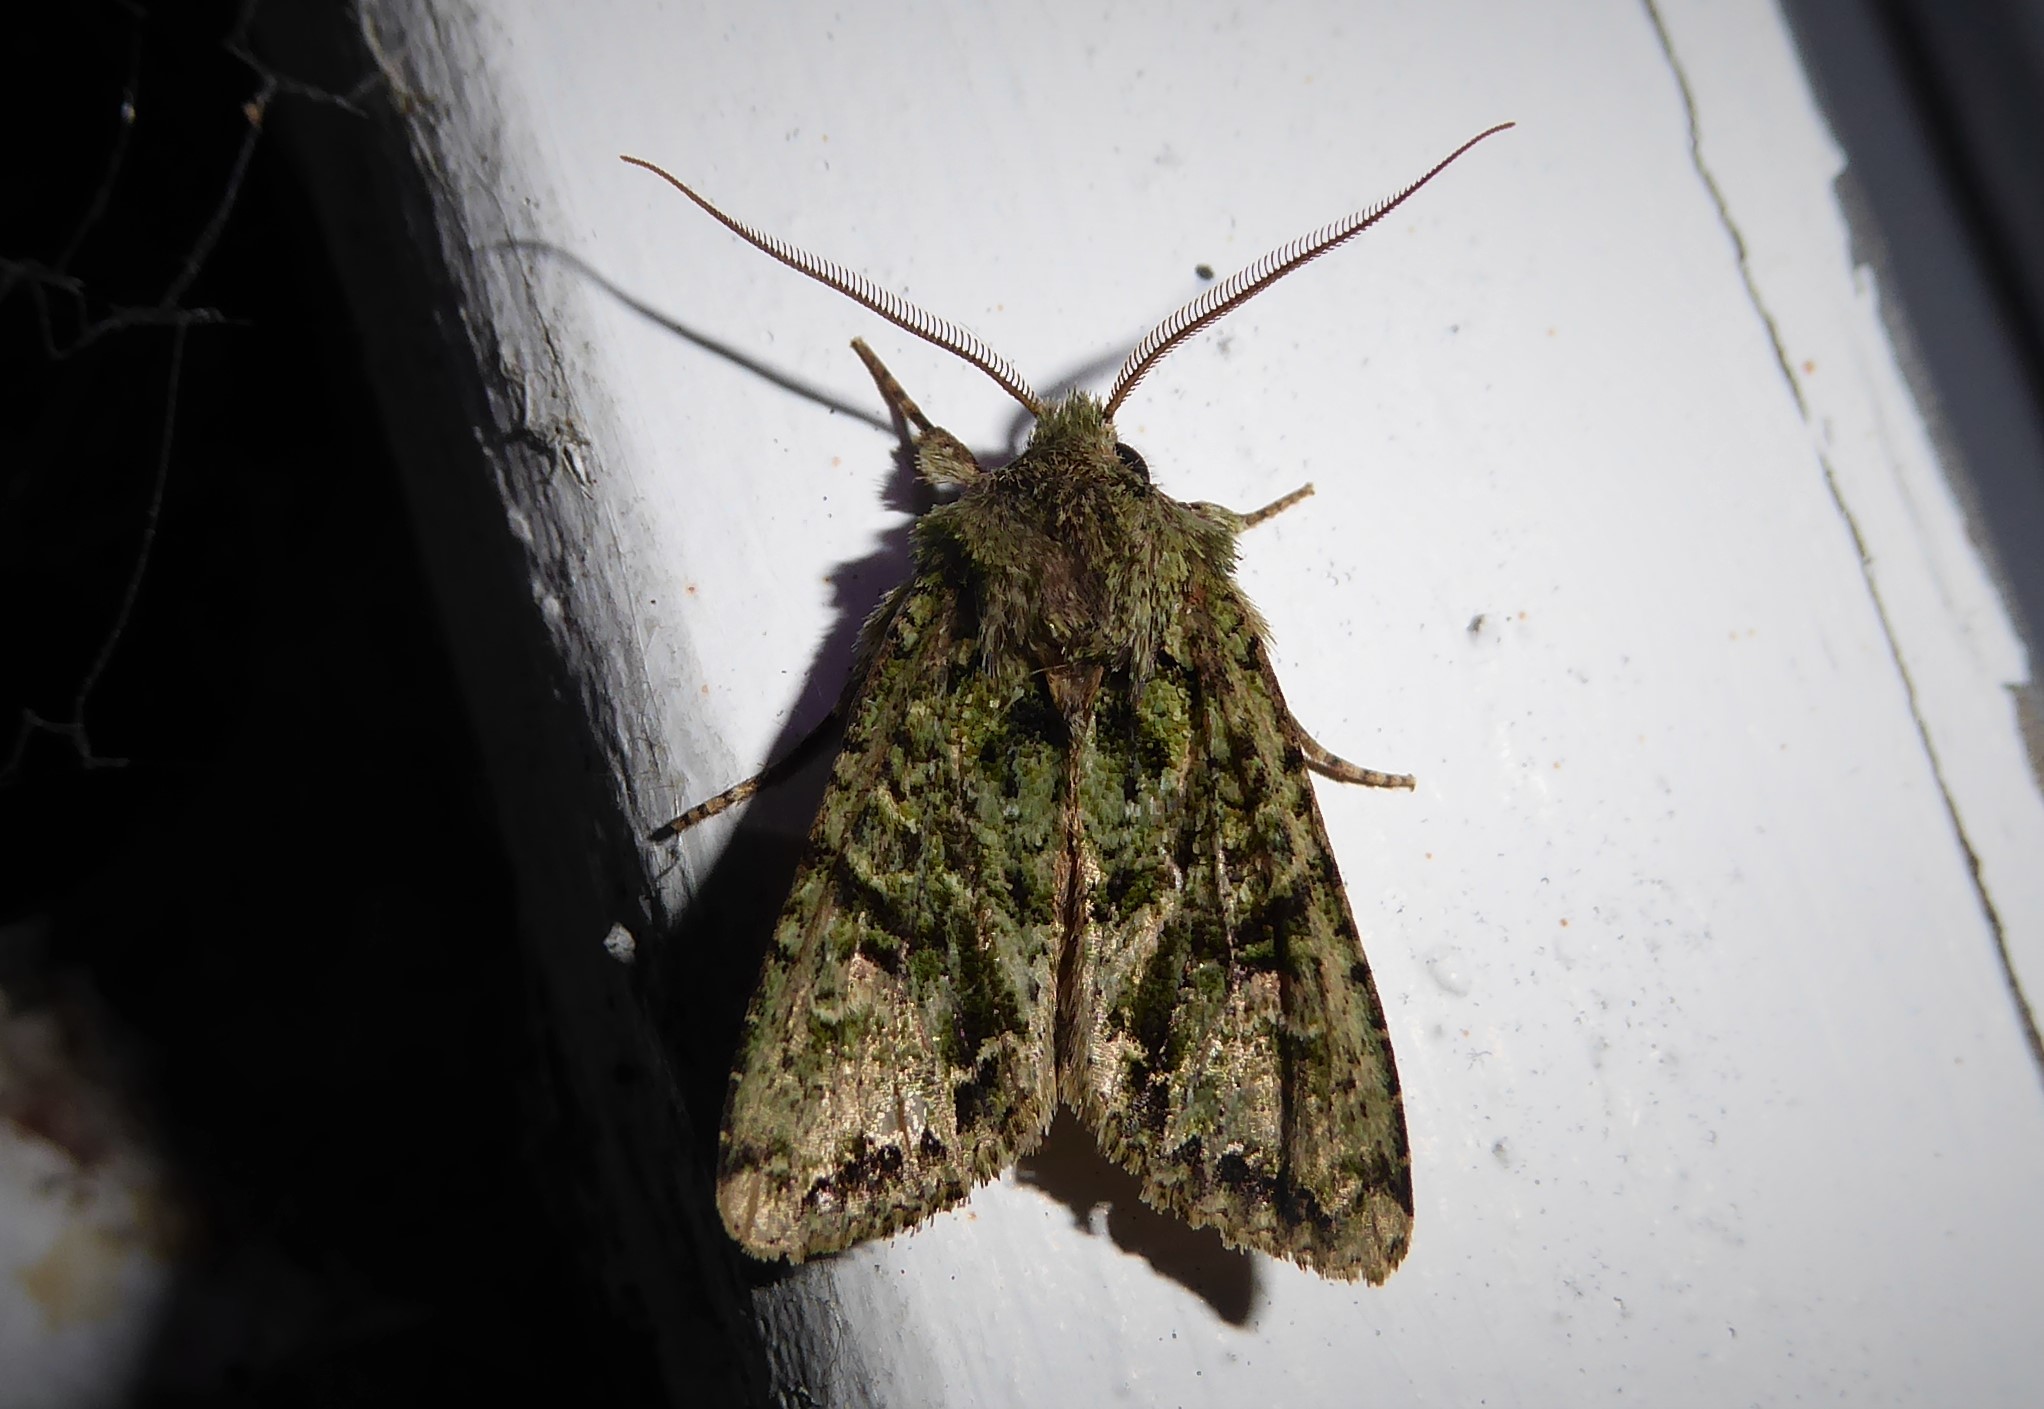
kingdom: Animalia
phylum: Arthropoda
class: Insecta
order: Lepidoptera
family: Noctuidae
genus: Ichneutica
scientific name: Ichneutica
